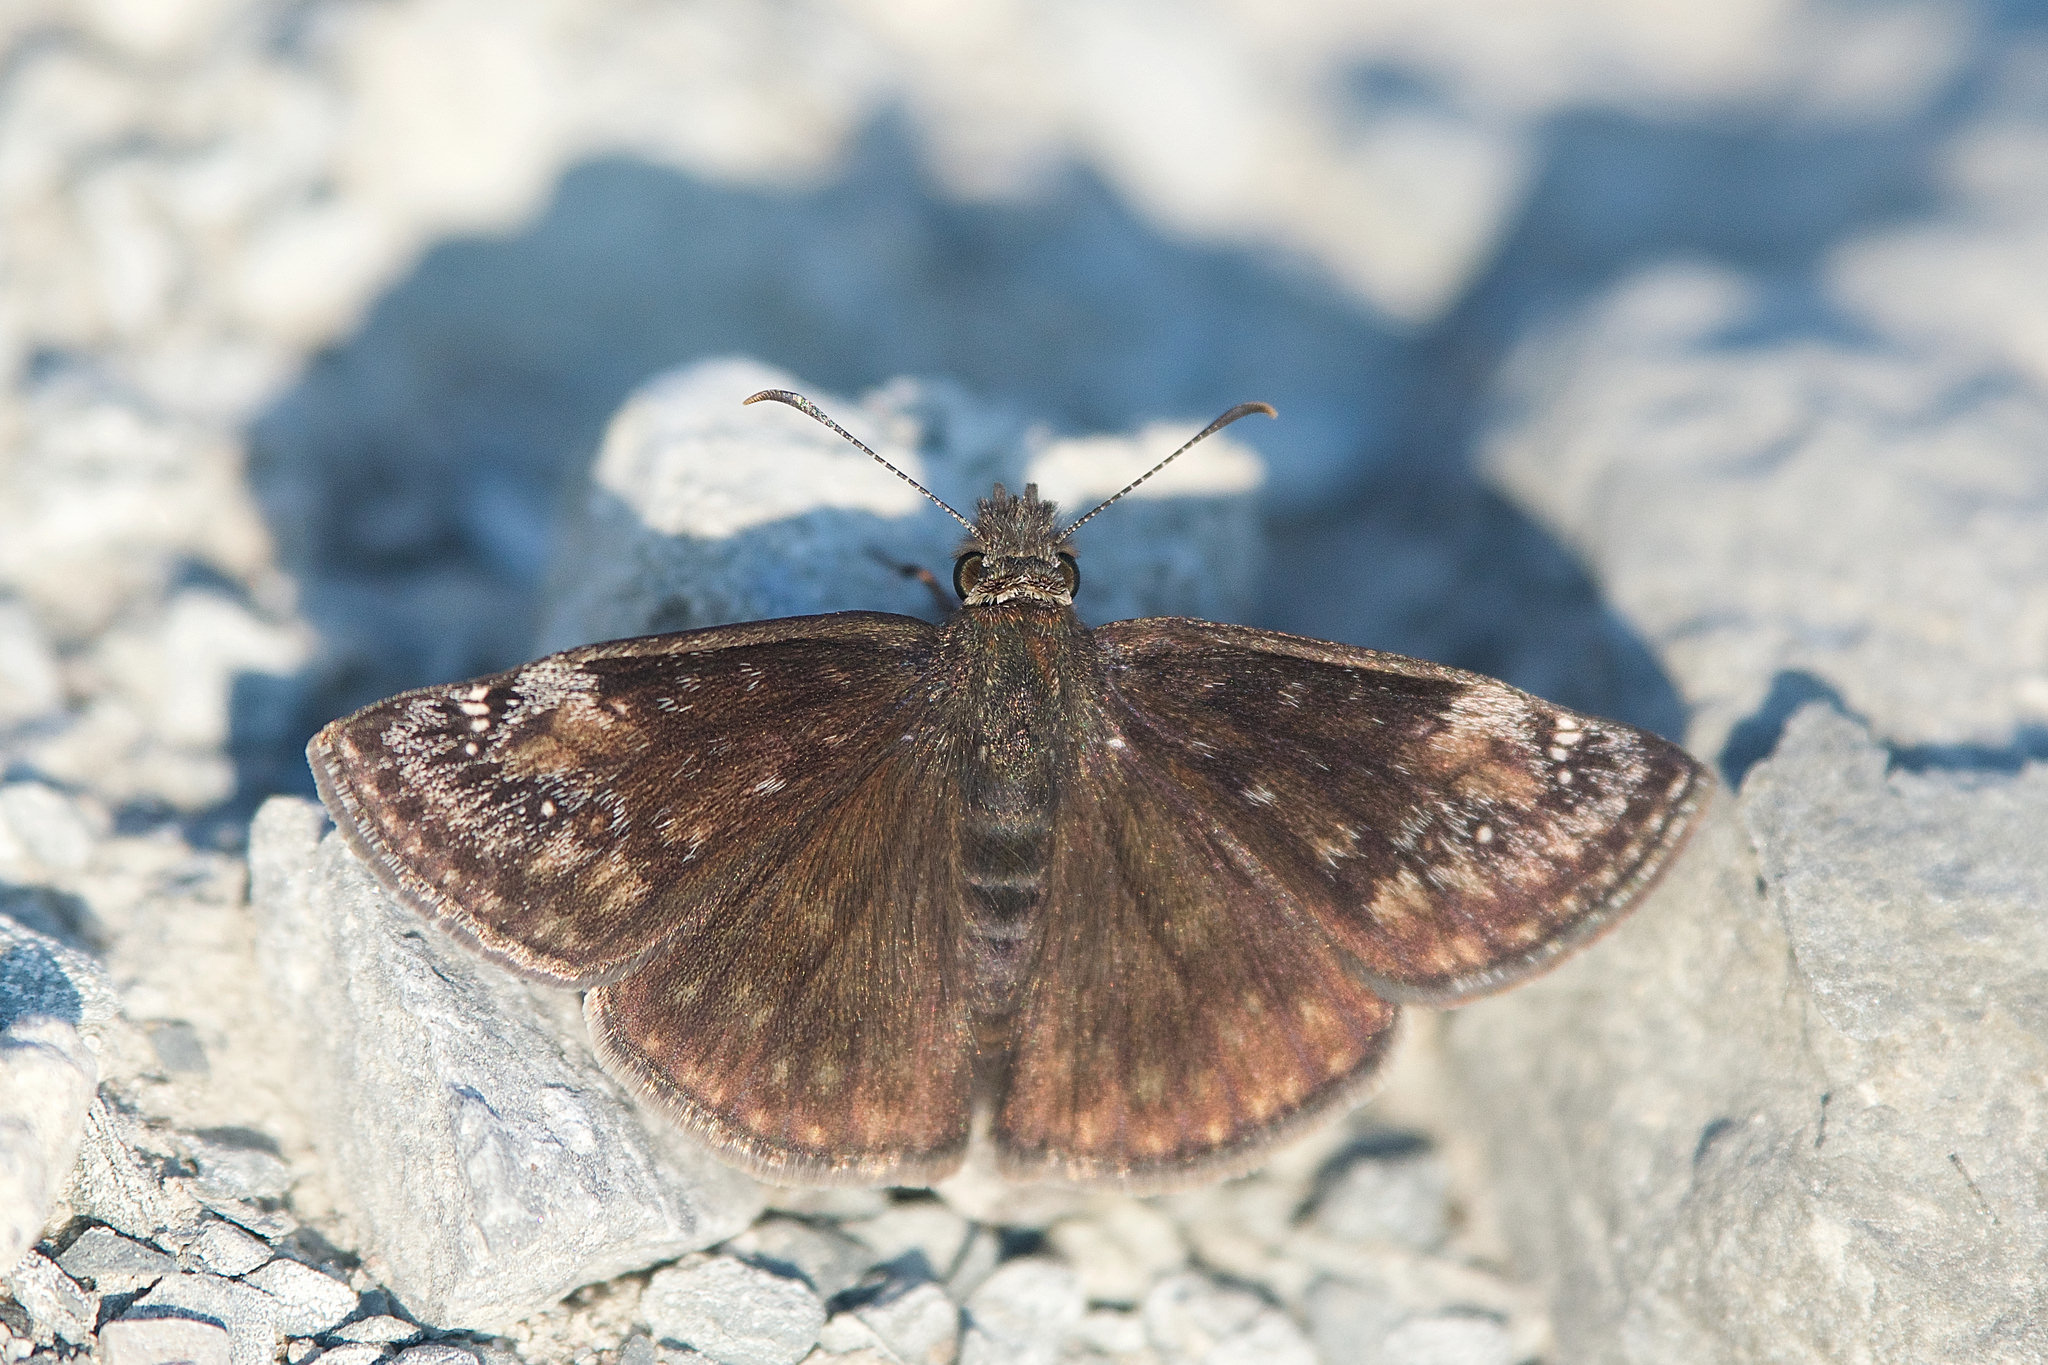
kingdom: Animalia
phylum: Arthropoda
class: Insecta
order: Lepidoptera
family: Hesperiidae
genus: Erynnis
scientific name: Erynnis baptisiae
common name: Wild indigo duskywing
